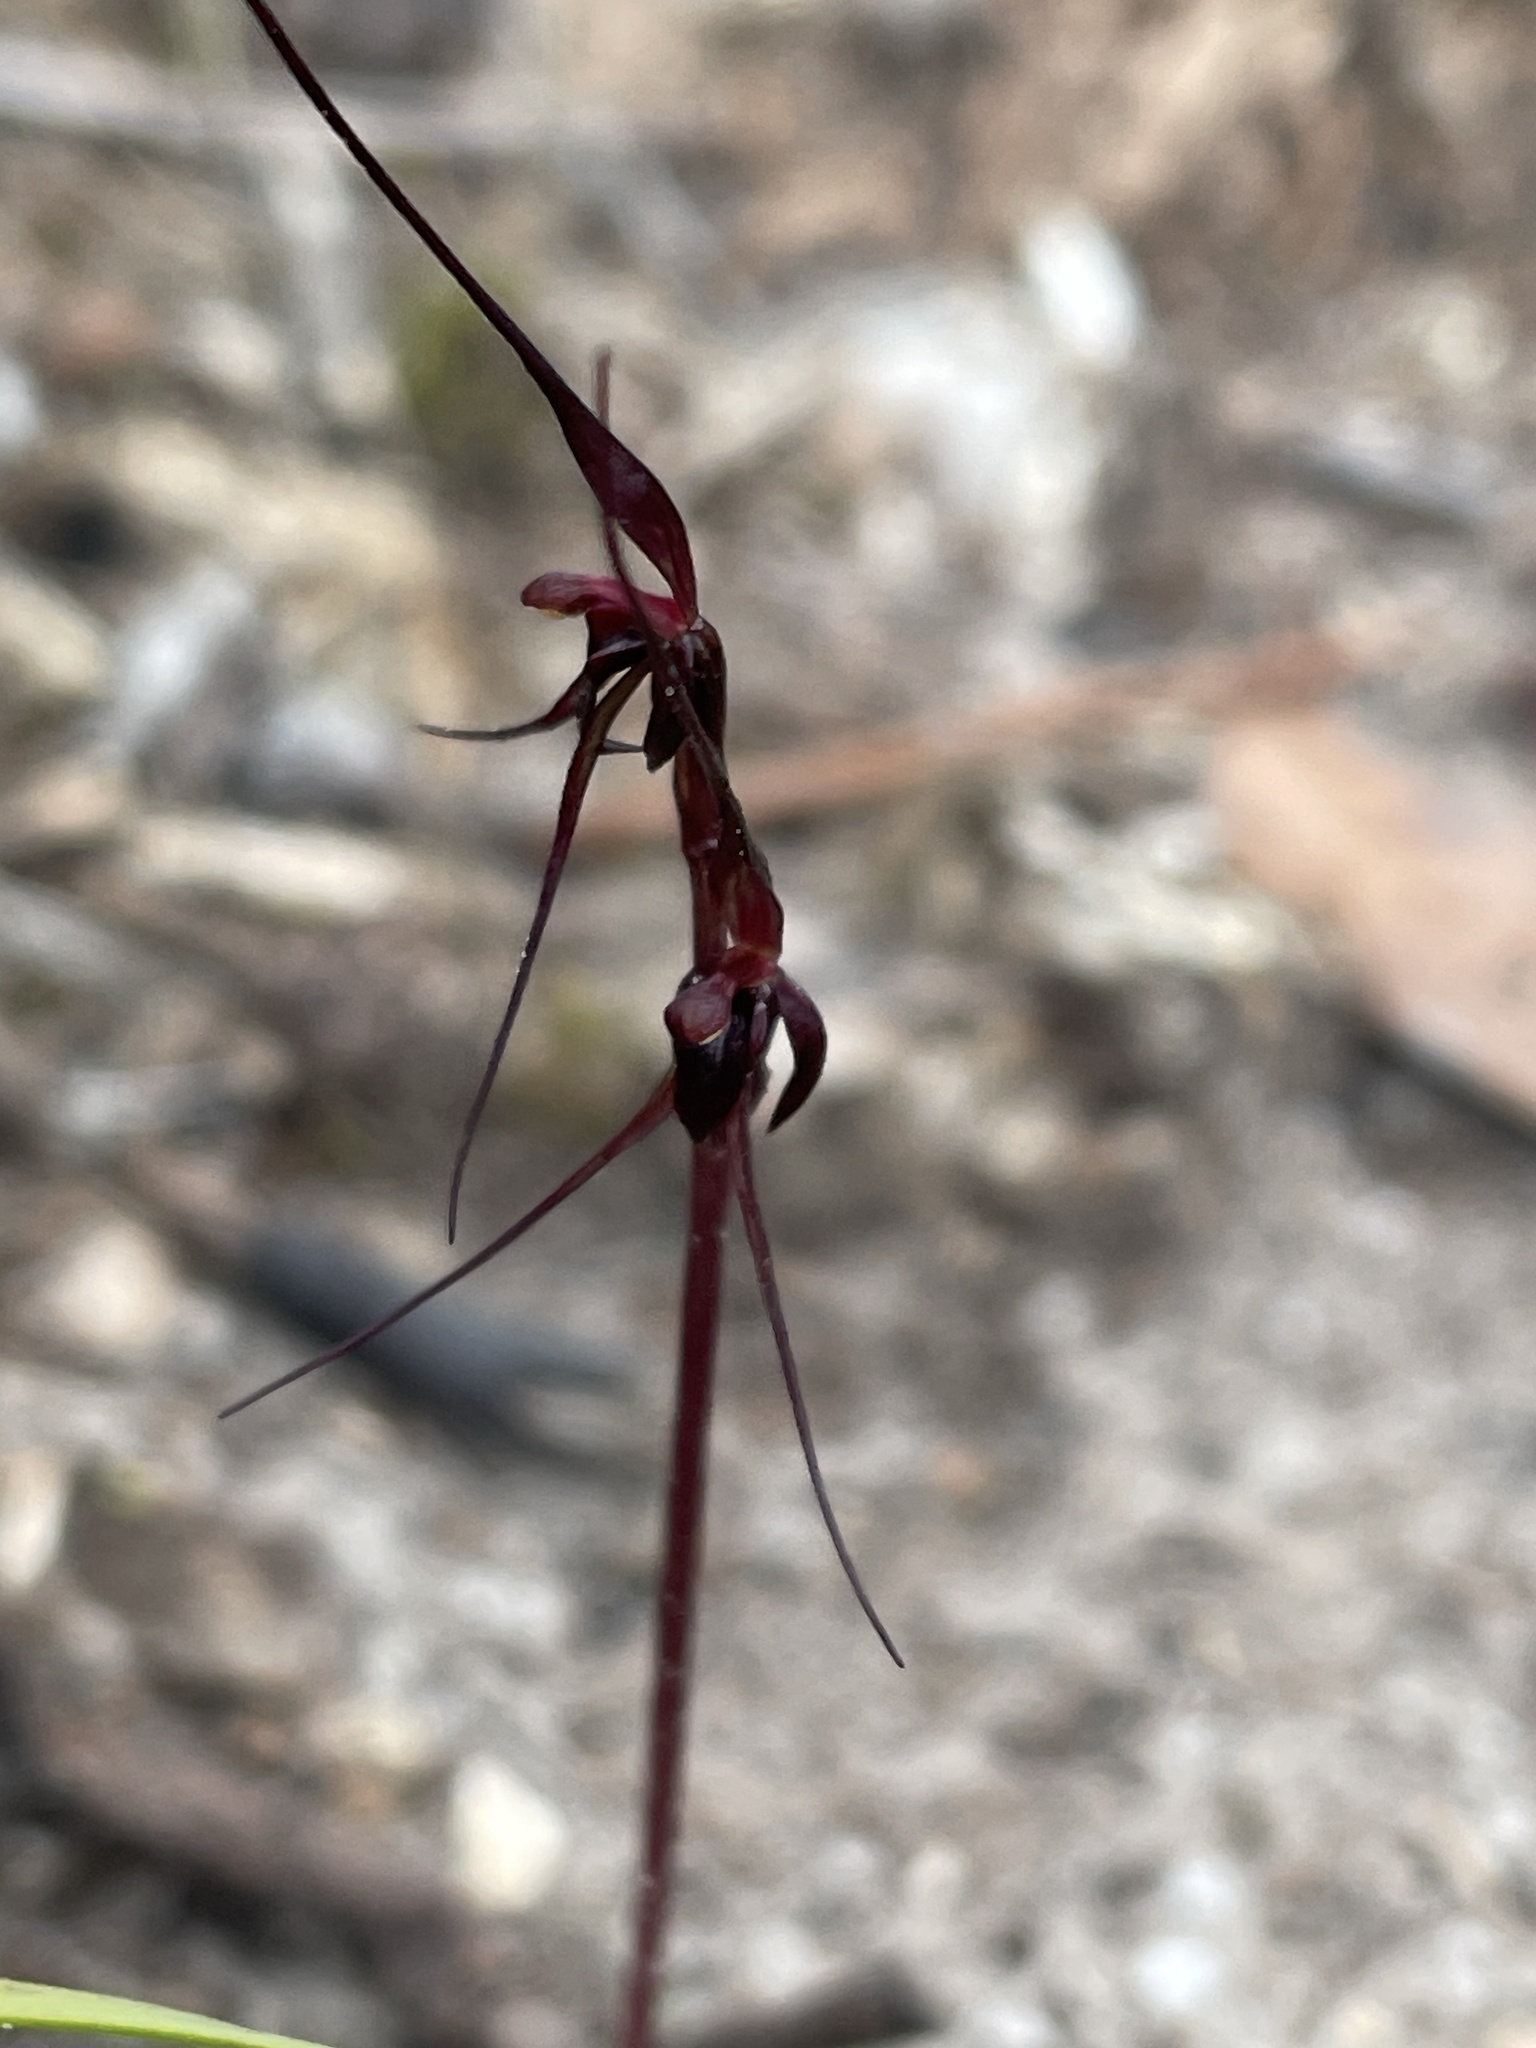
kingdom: Plantae
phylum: Tracheophyta
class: Liliopsida
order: Asparagales
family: Orchidaceae
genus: Acianthus
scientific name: Acianthus caudatus
